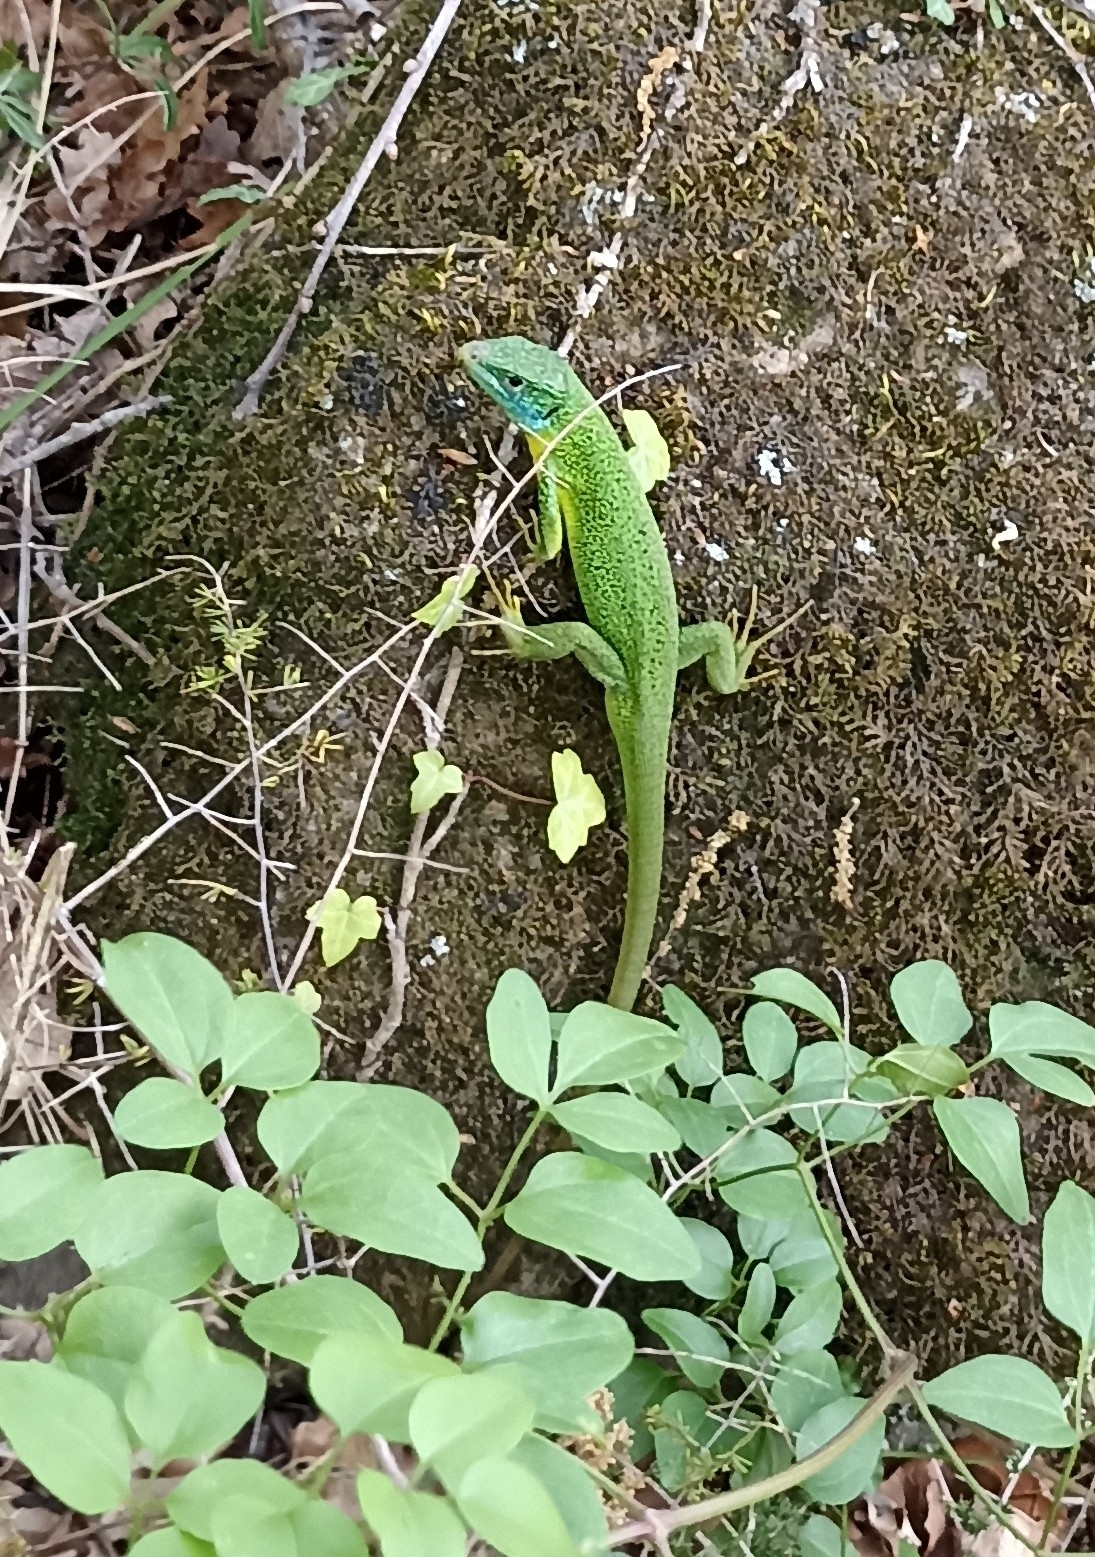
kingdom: Animalia
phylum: Chordata
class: Squamata
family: Lacertidae
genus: Lacerta
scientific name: Lacerta bilineata
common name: Western green lizard
